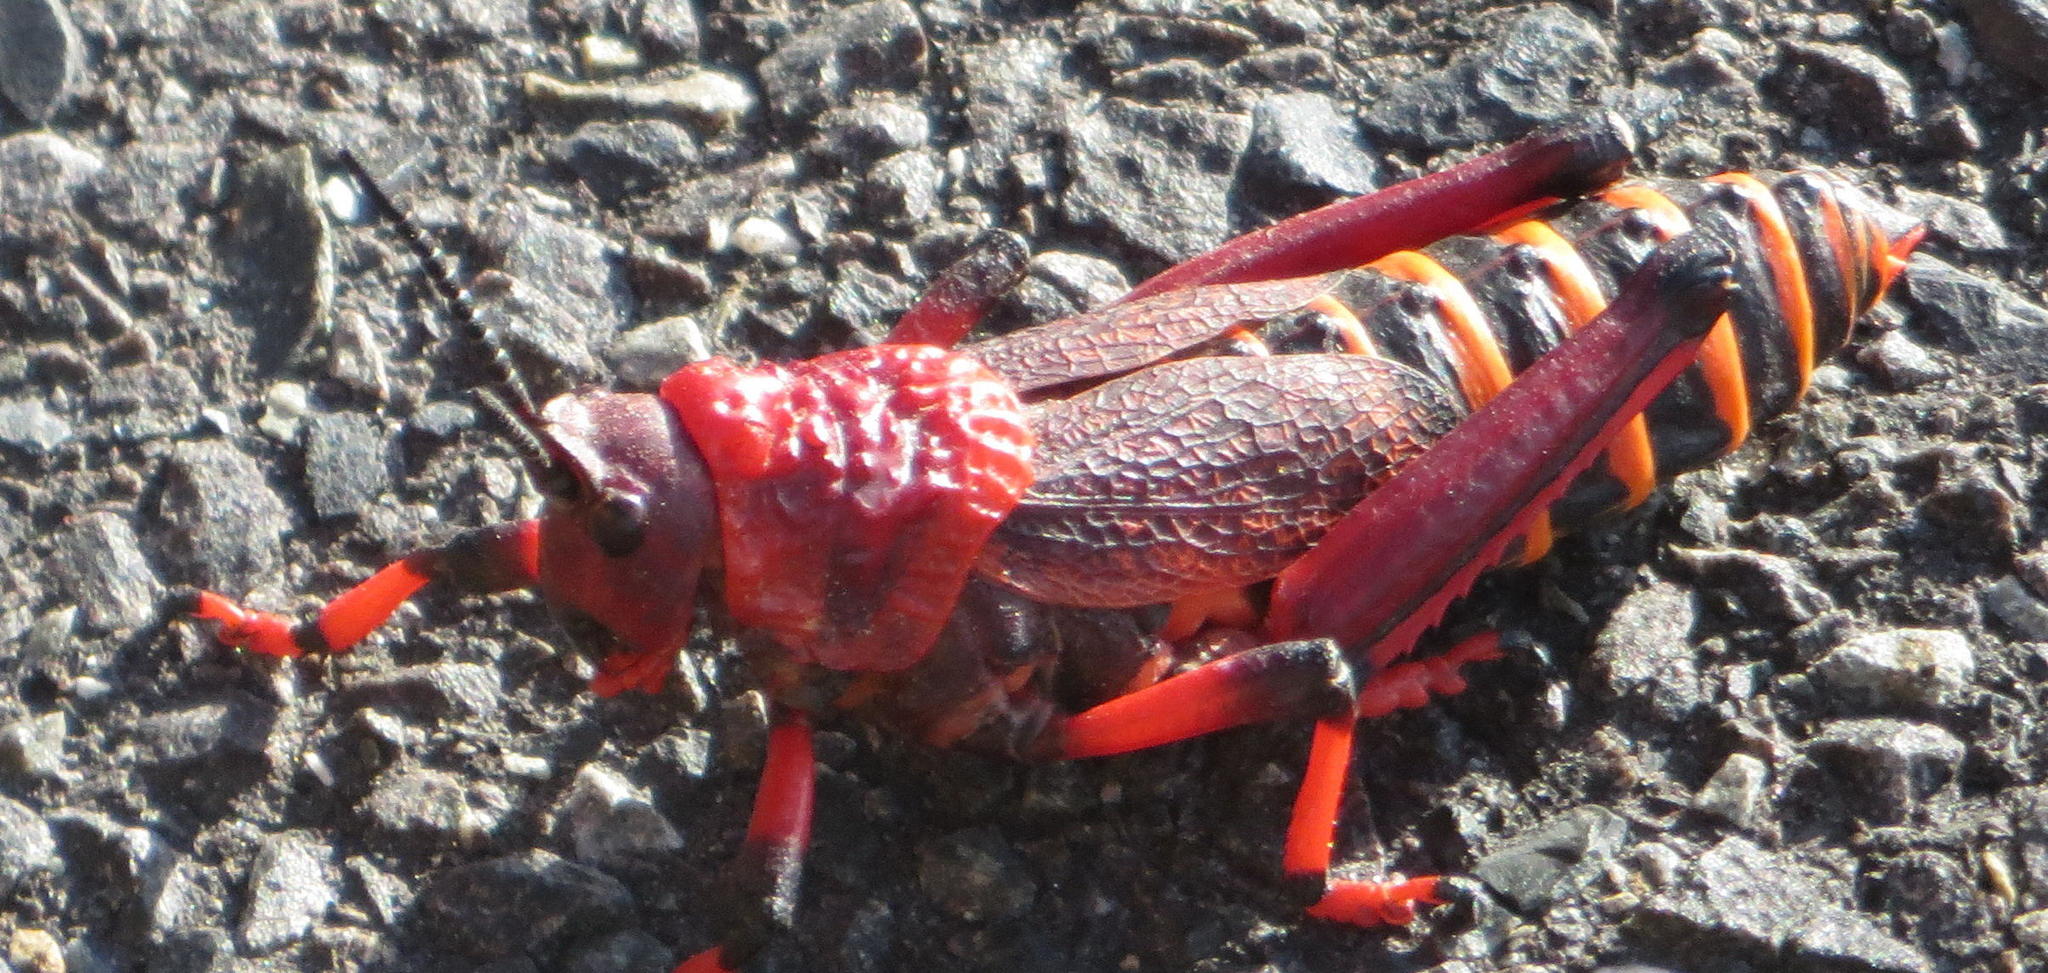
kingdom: Animalia
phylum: Arthropoda
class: Insecta
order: Orthoptera
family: Pyrgomorphidae
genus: Dictyophorus
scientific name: Dictyophorus spumans
